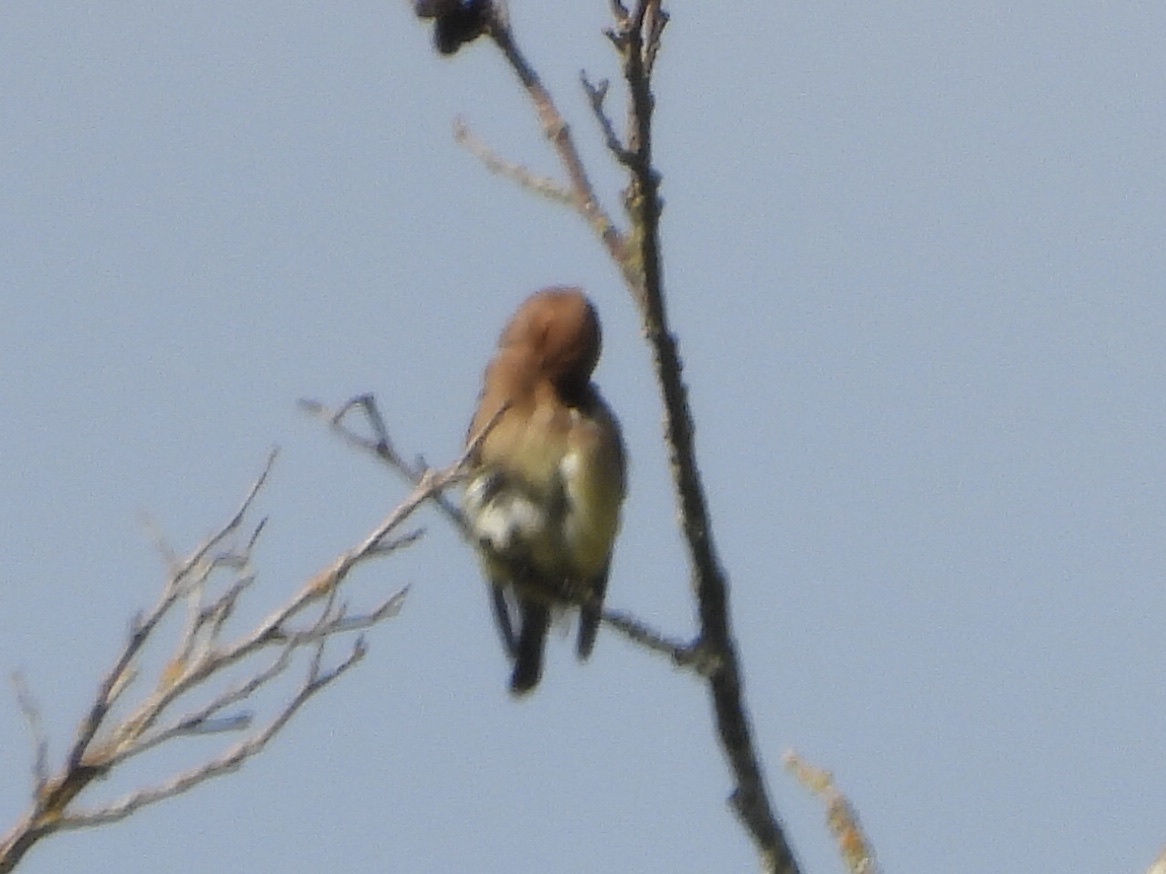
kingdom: Animalia
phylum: Chordata
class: Aves
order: Passeriformes
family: Bombycillidae
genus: Bombycilla
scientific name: Bombycilla cedrorum
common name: Cedar waxwing
